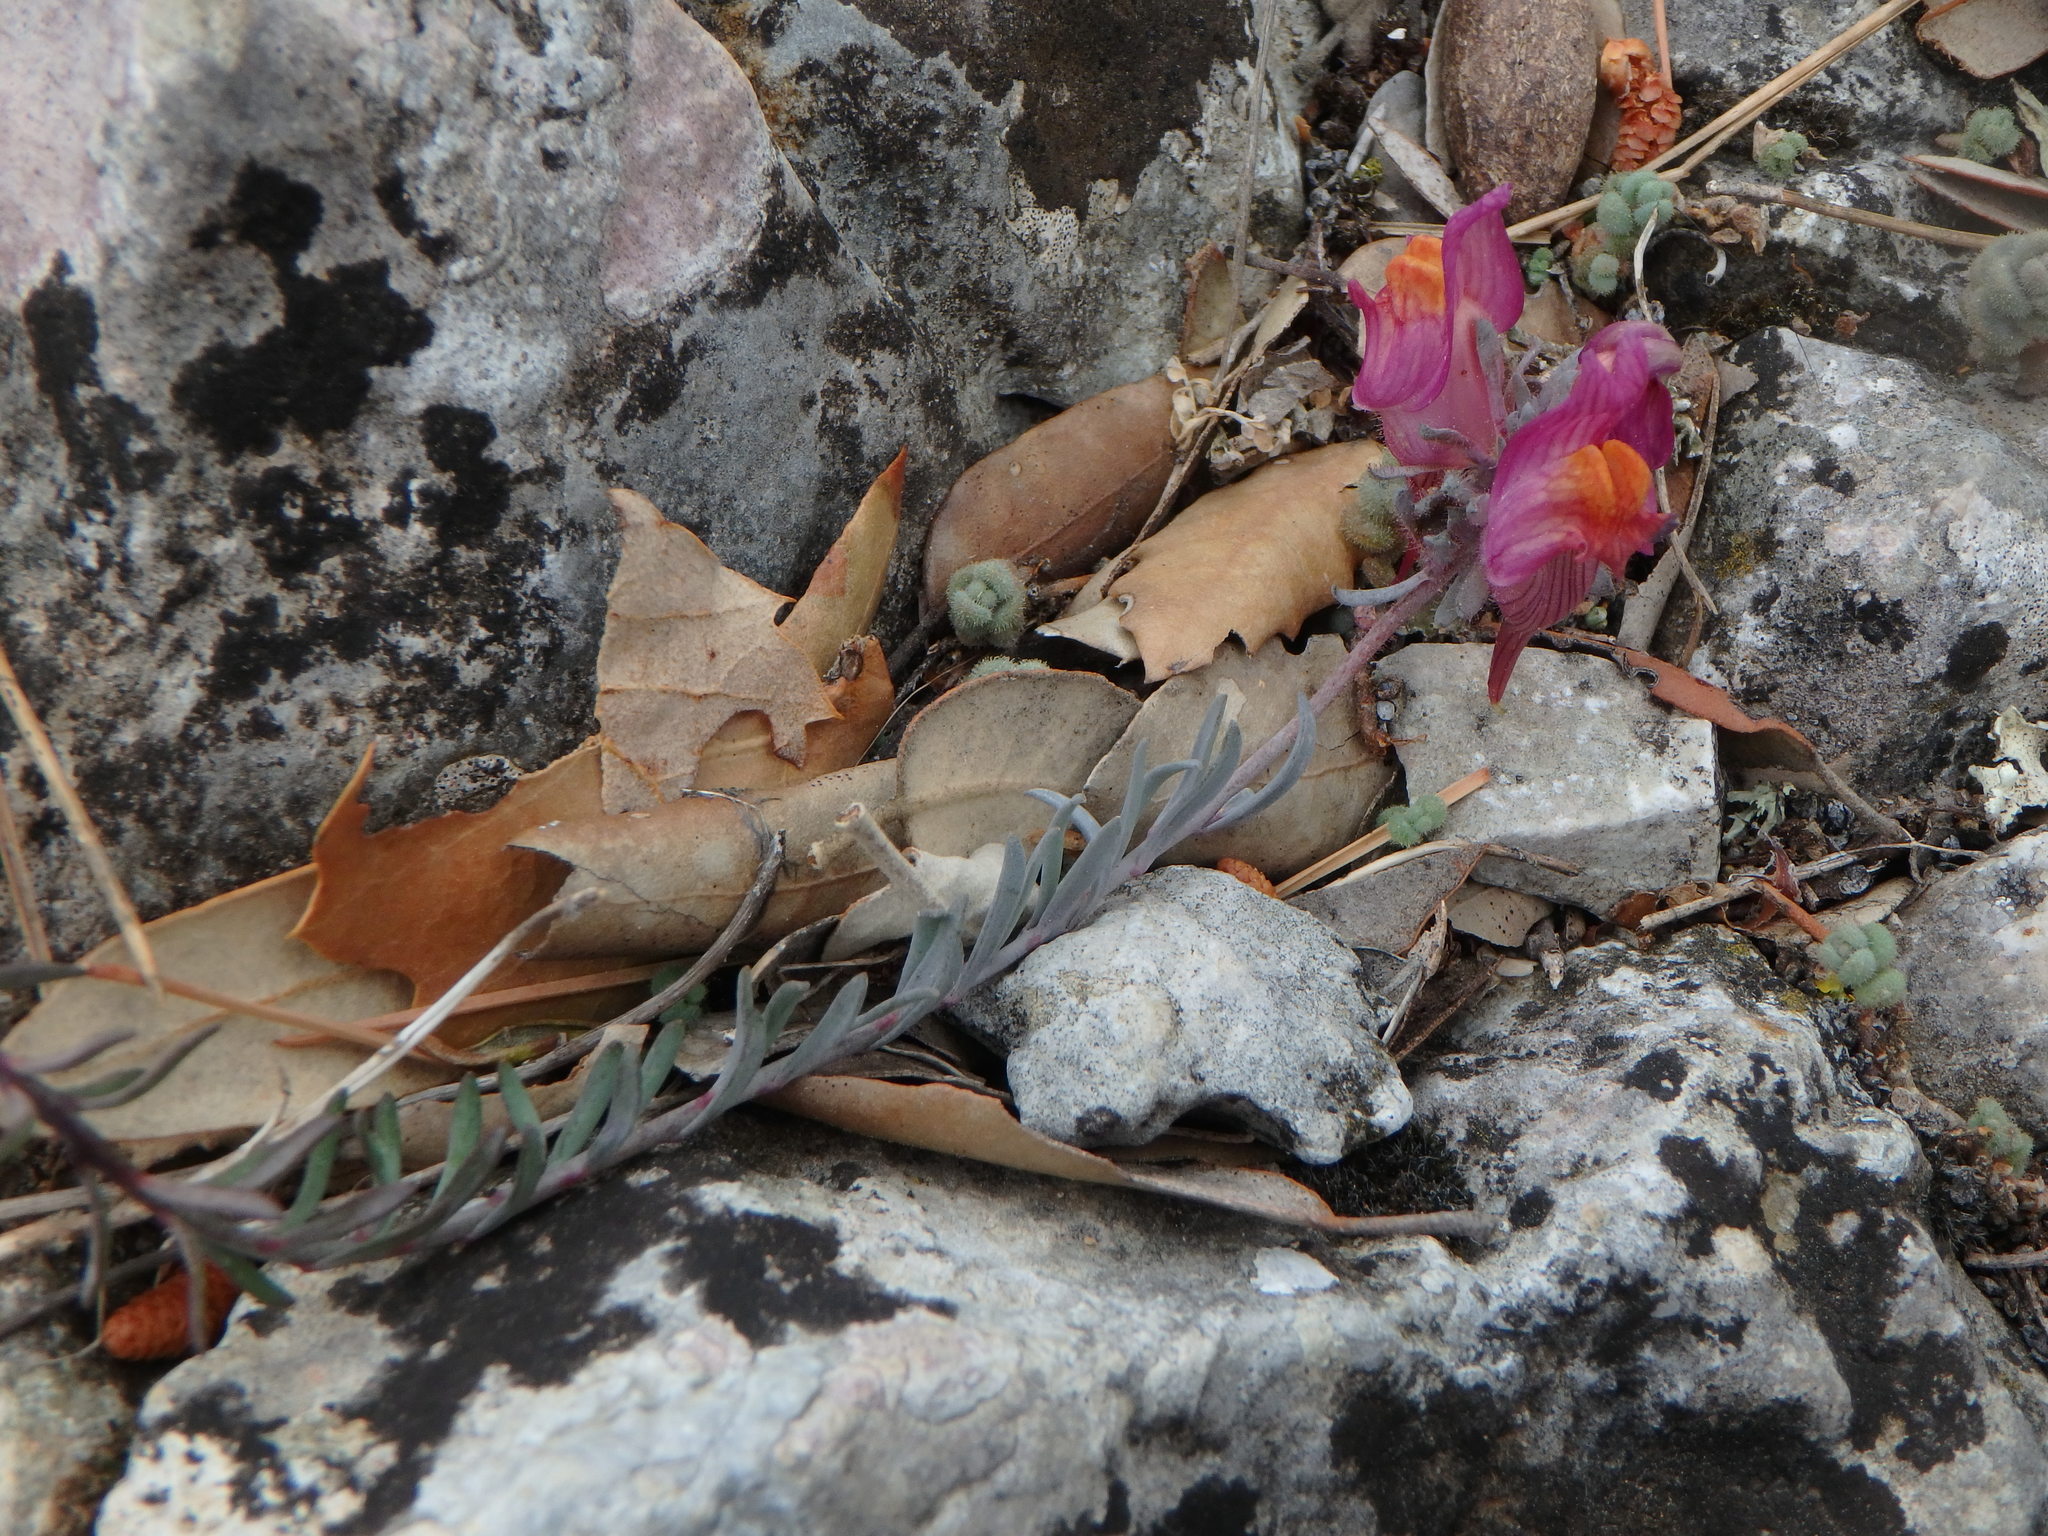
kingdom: Plantae
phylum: Tracheophyta
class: Magnoliopsida
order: Lamiales
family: Plantaginaceae
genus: Linaria
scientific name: Linaria aeruginea
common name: Roadside toadflax
